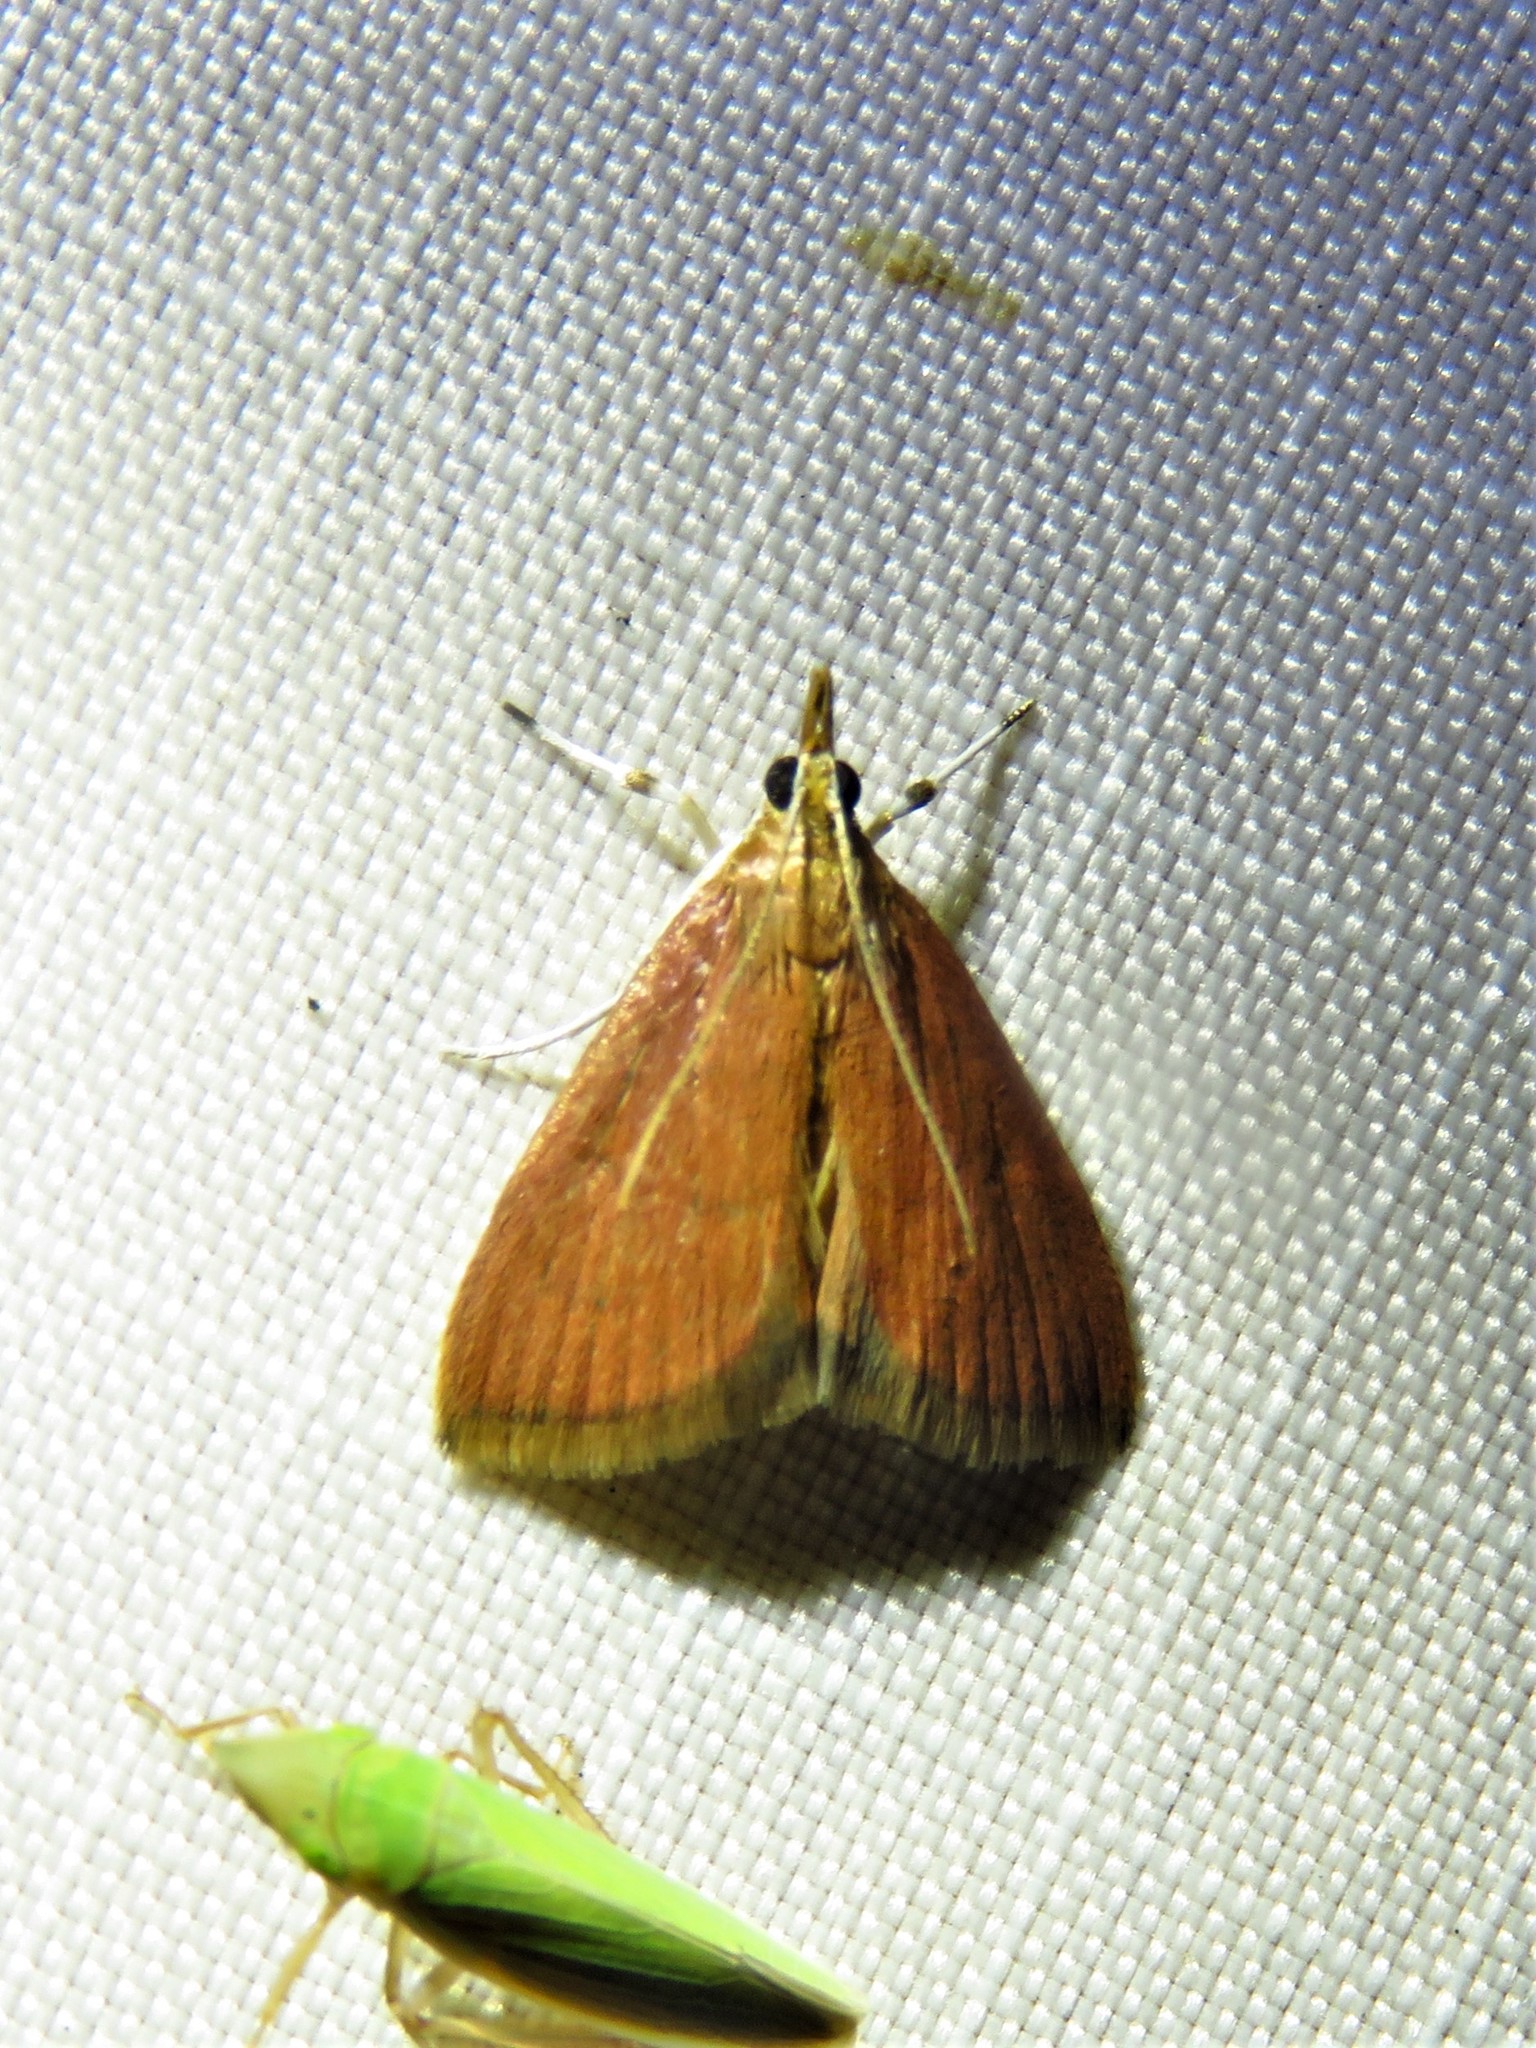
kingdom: Animalia
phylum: Arthropoda
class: Insecta
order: Lepidoptera
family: Crambidae
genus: Oenobotys
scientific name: Oenobotys vinotinctalis
